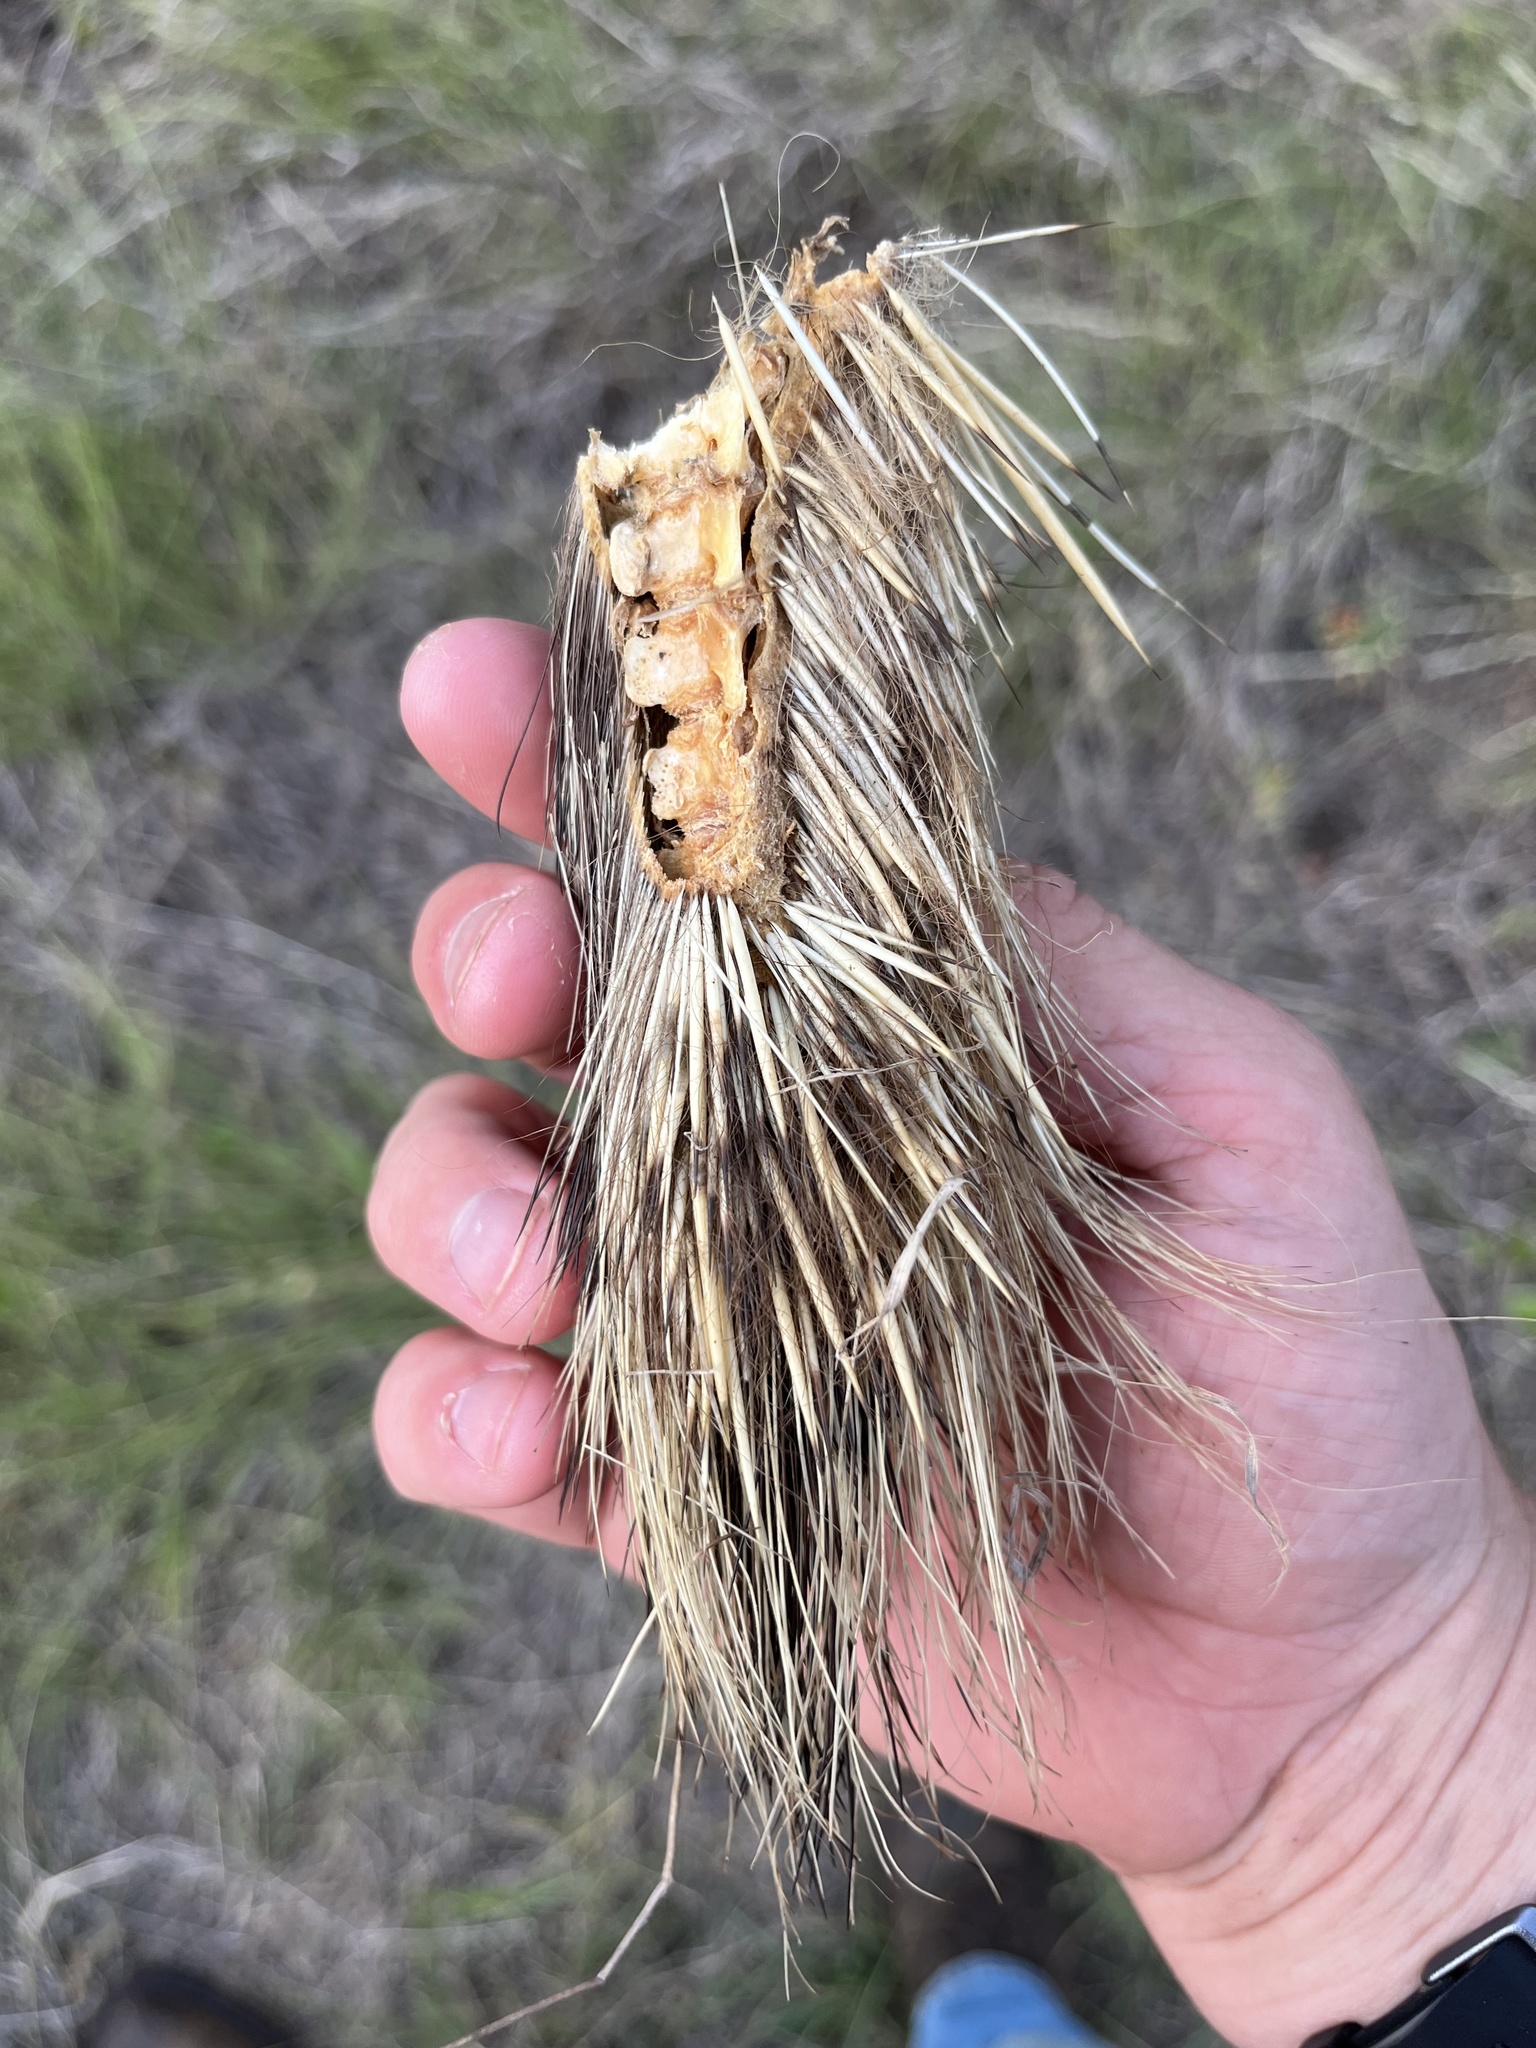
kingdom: Animalia
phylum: Chordata
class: Mammalia
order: Rodentia
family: Erethizontidae
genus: Erethizon
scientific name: Erethizon dorsatus
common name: North american porcupine
